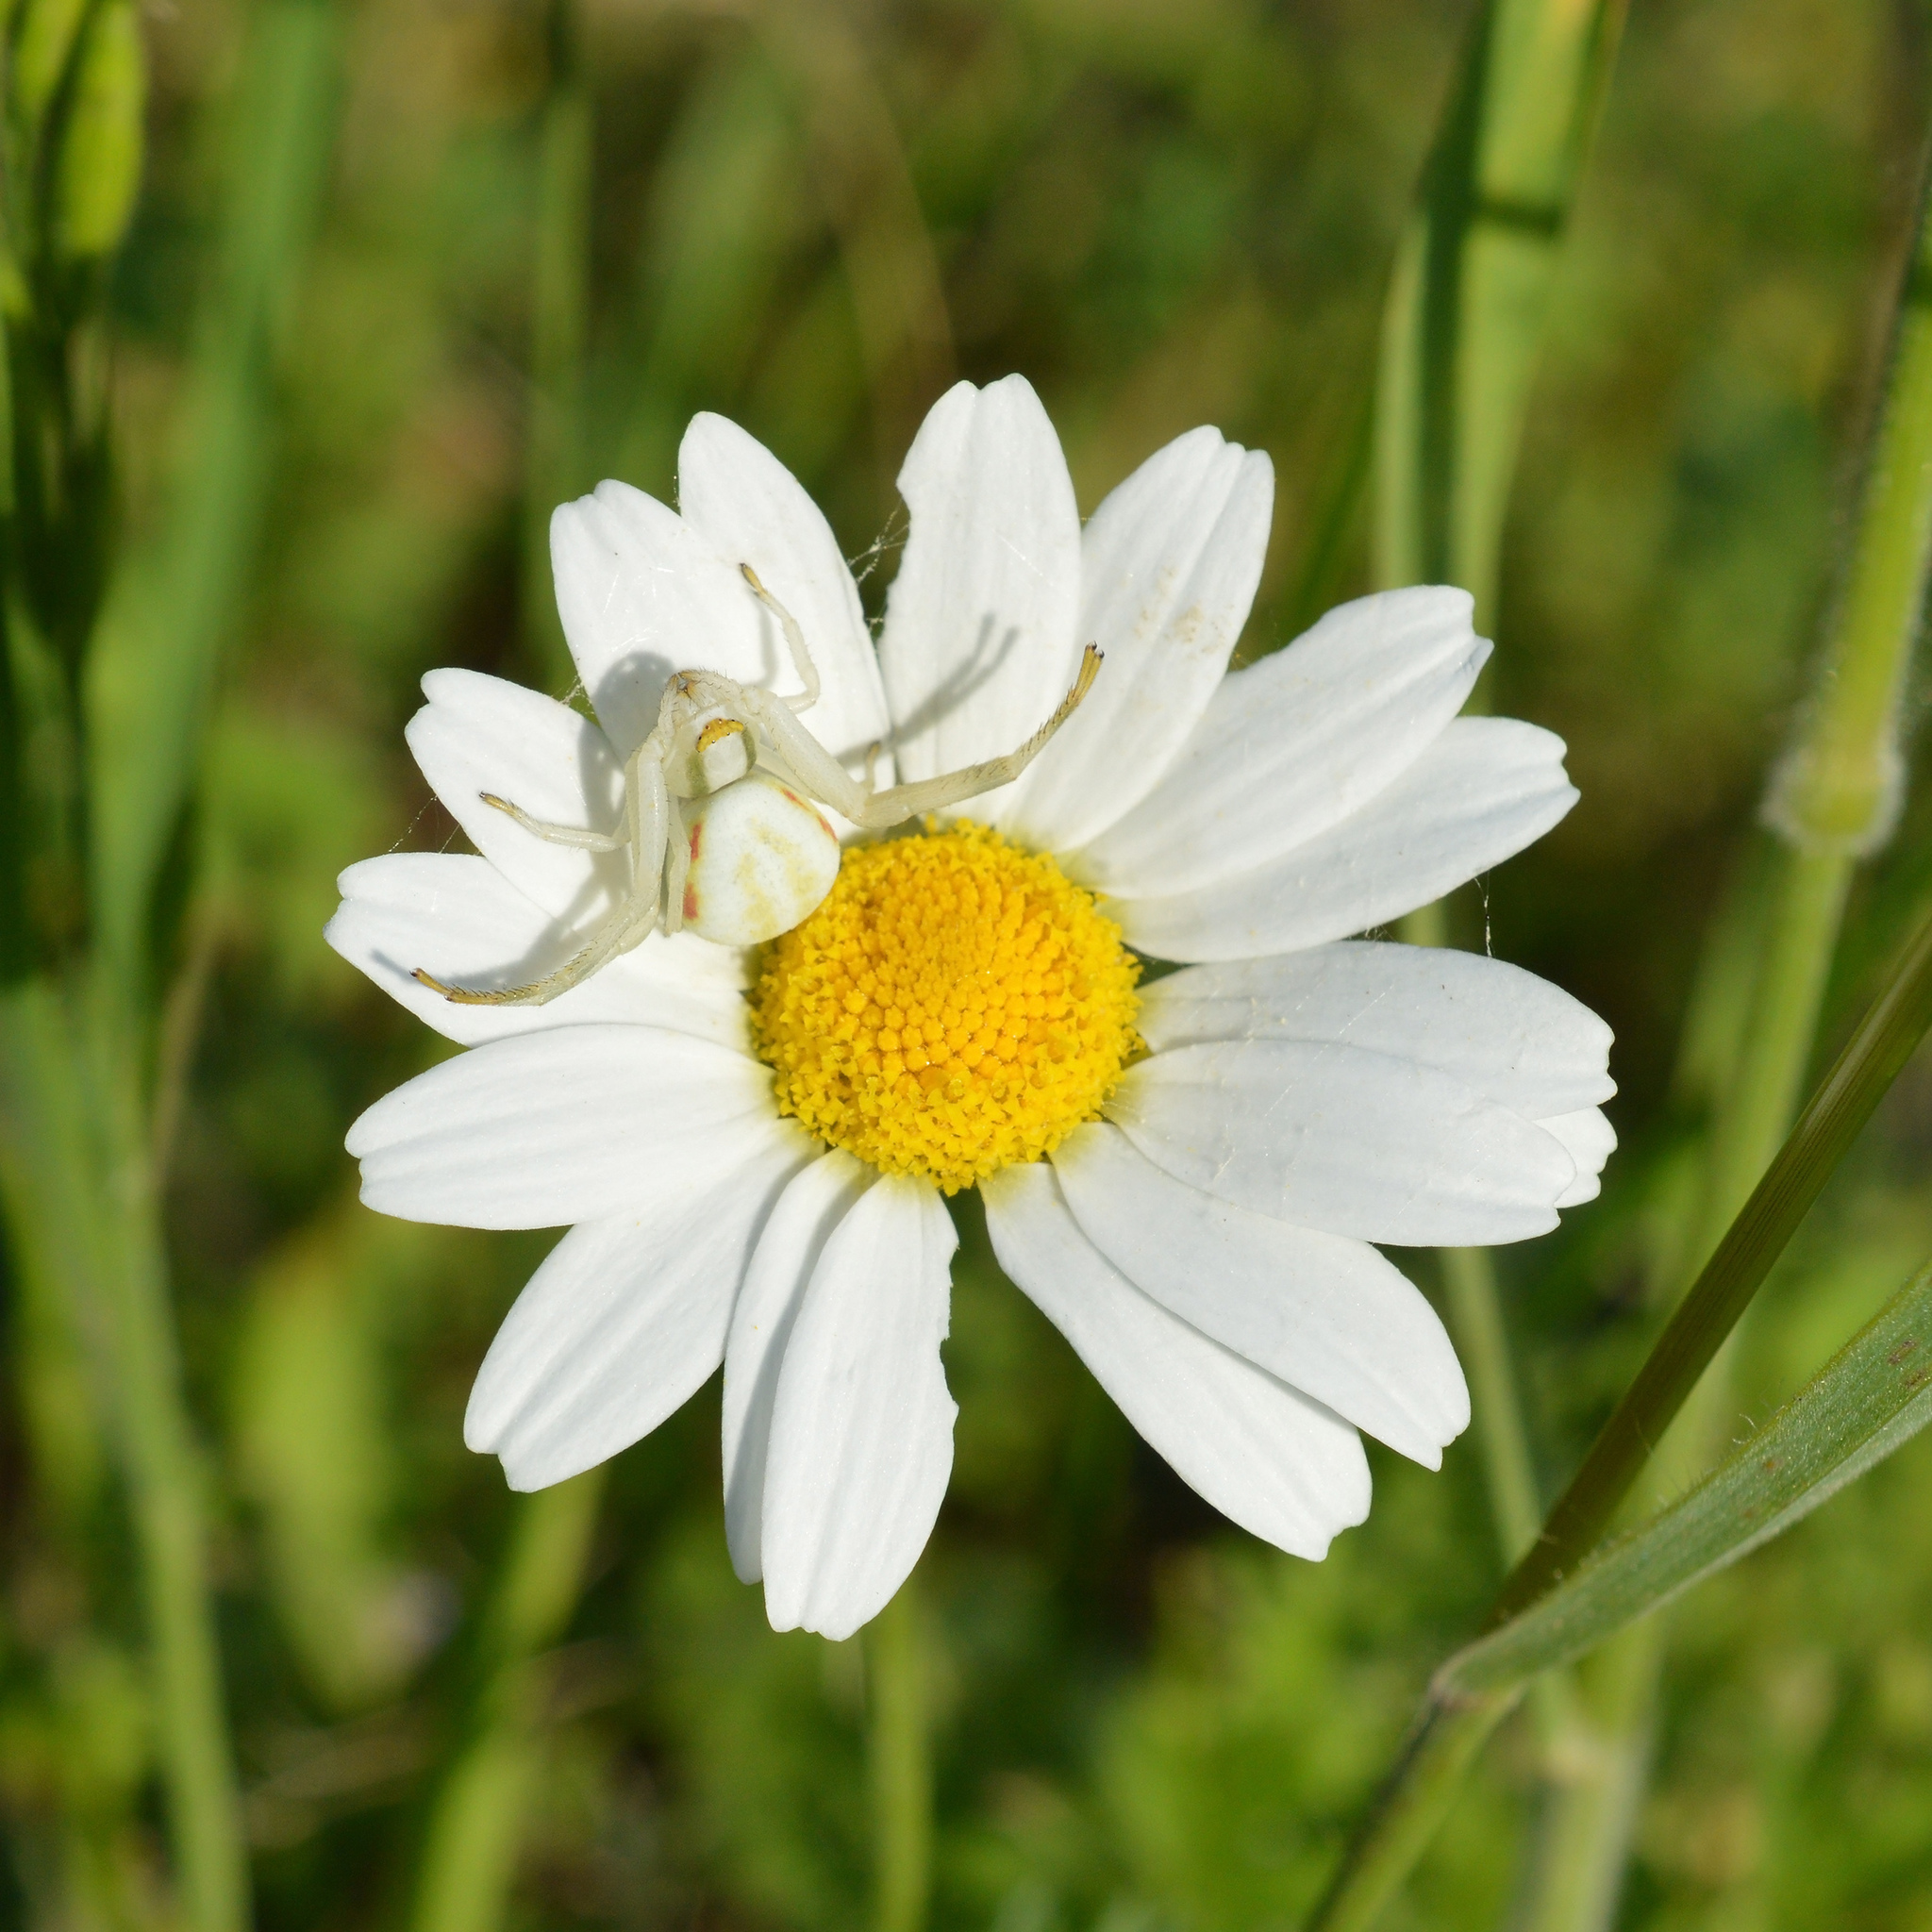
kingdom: Animalia
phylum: Arthropoda
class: Arachnida
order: Araneae
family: Thomisidae
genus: Misumena
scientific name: Misumena vatia
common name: Goldenrod crab spider
